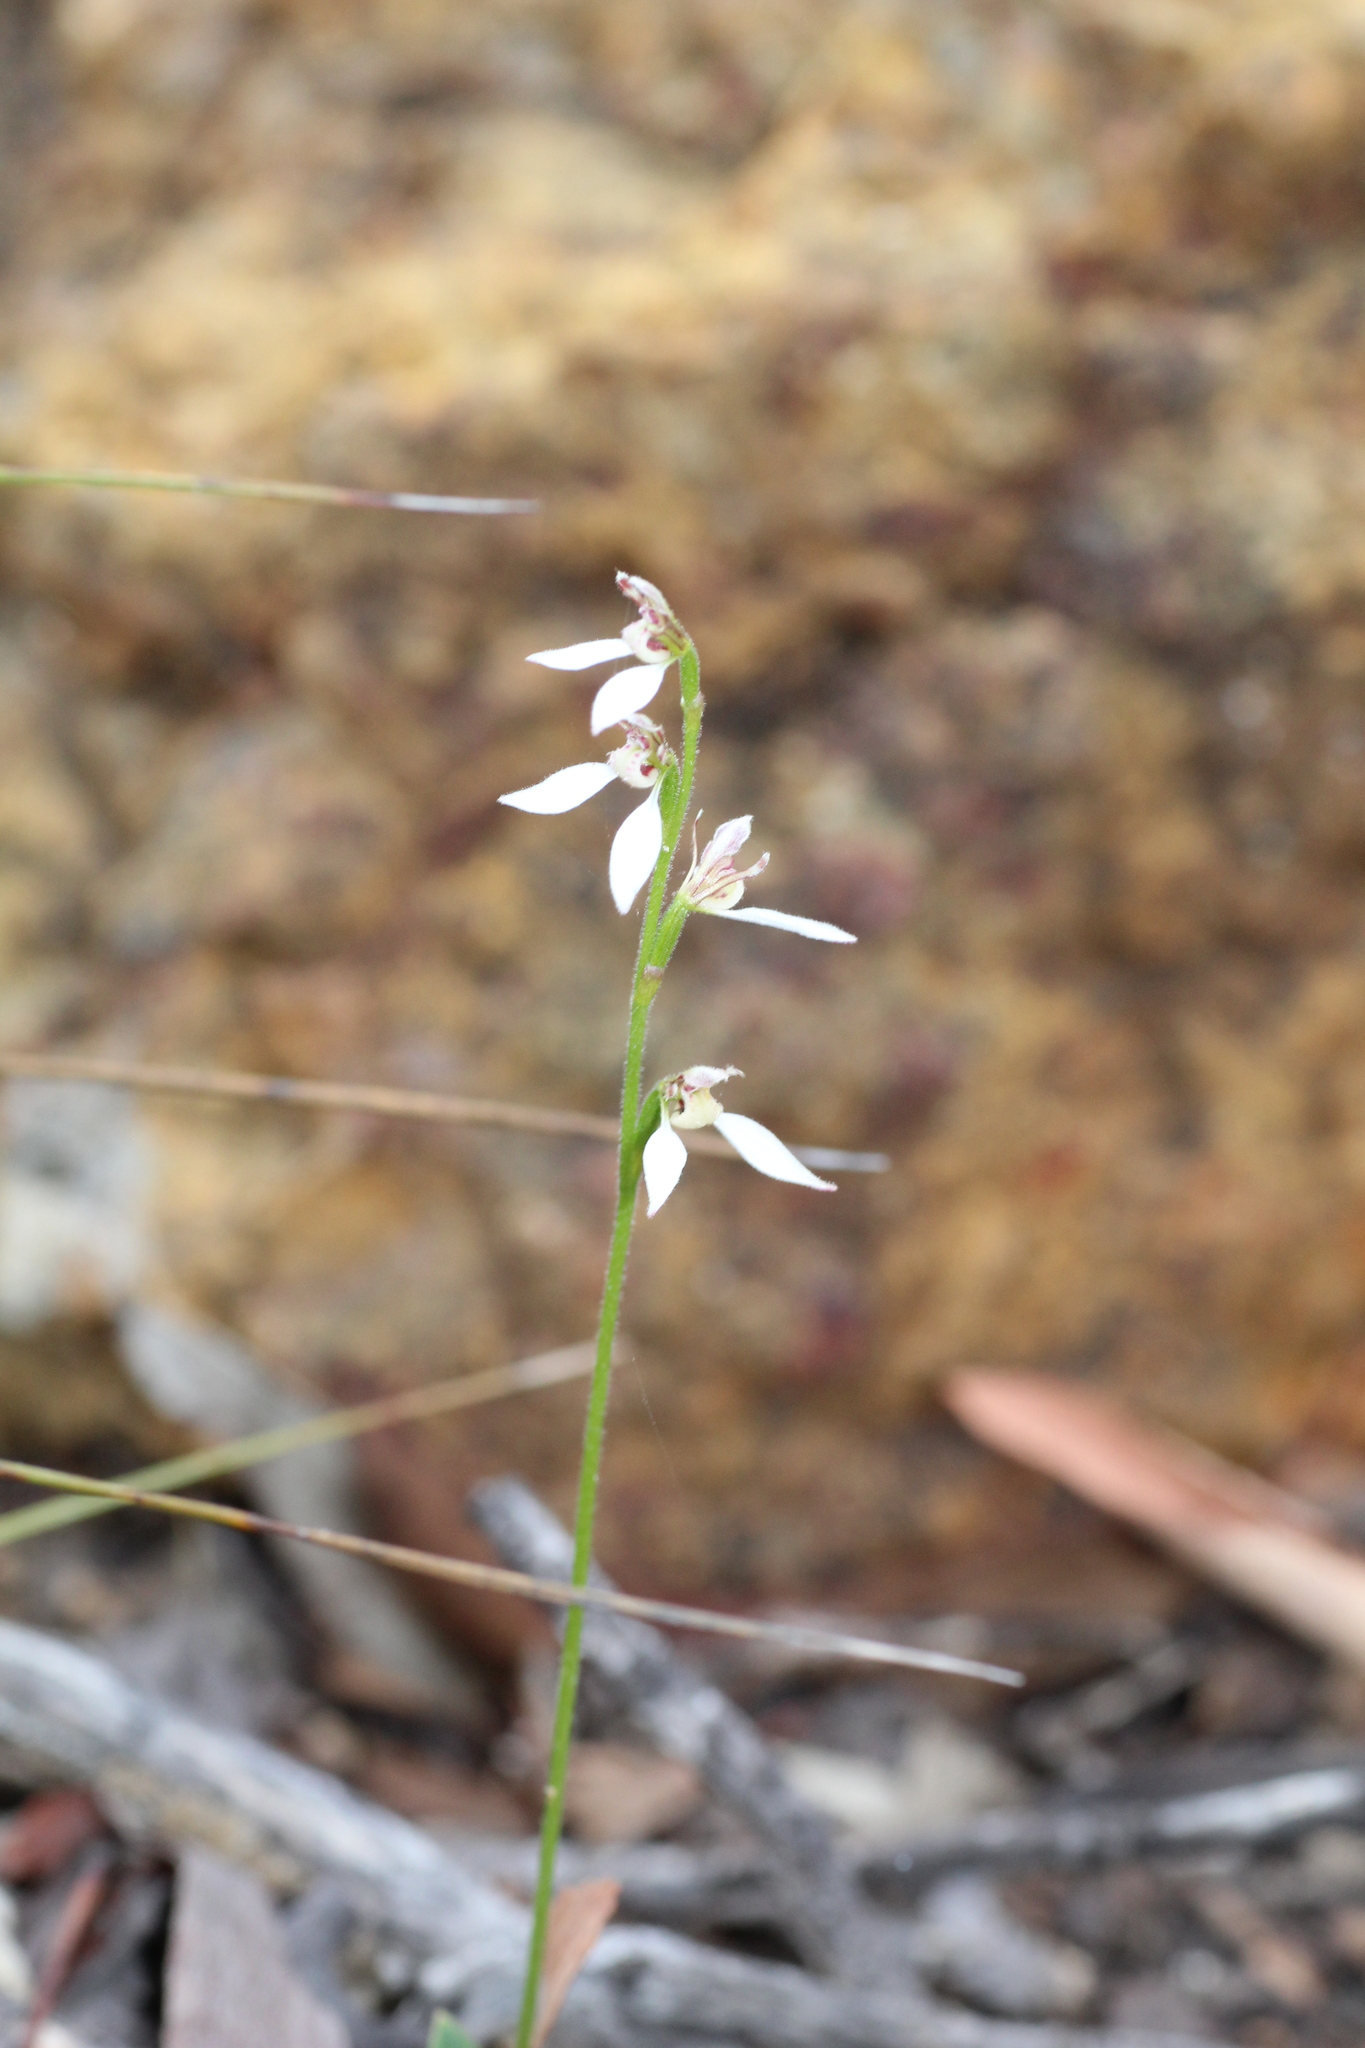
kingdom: Plantae
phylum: Tracheophyta
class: Liliopsida
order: Asparagales
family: Orchidaceae
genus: Eriochilus
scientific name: Eriochilus dilatatus
